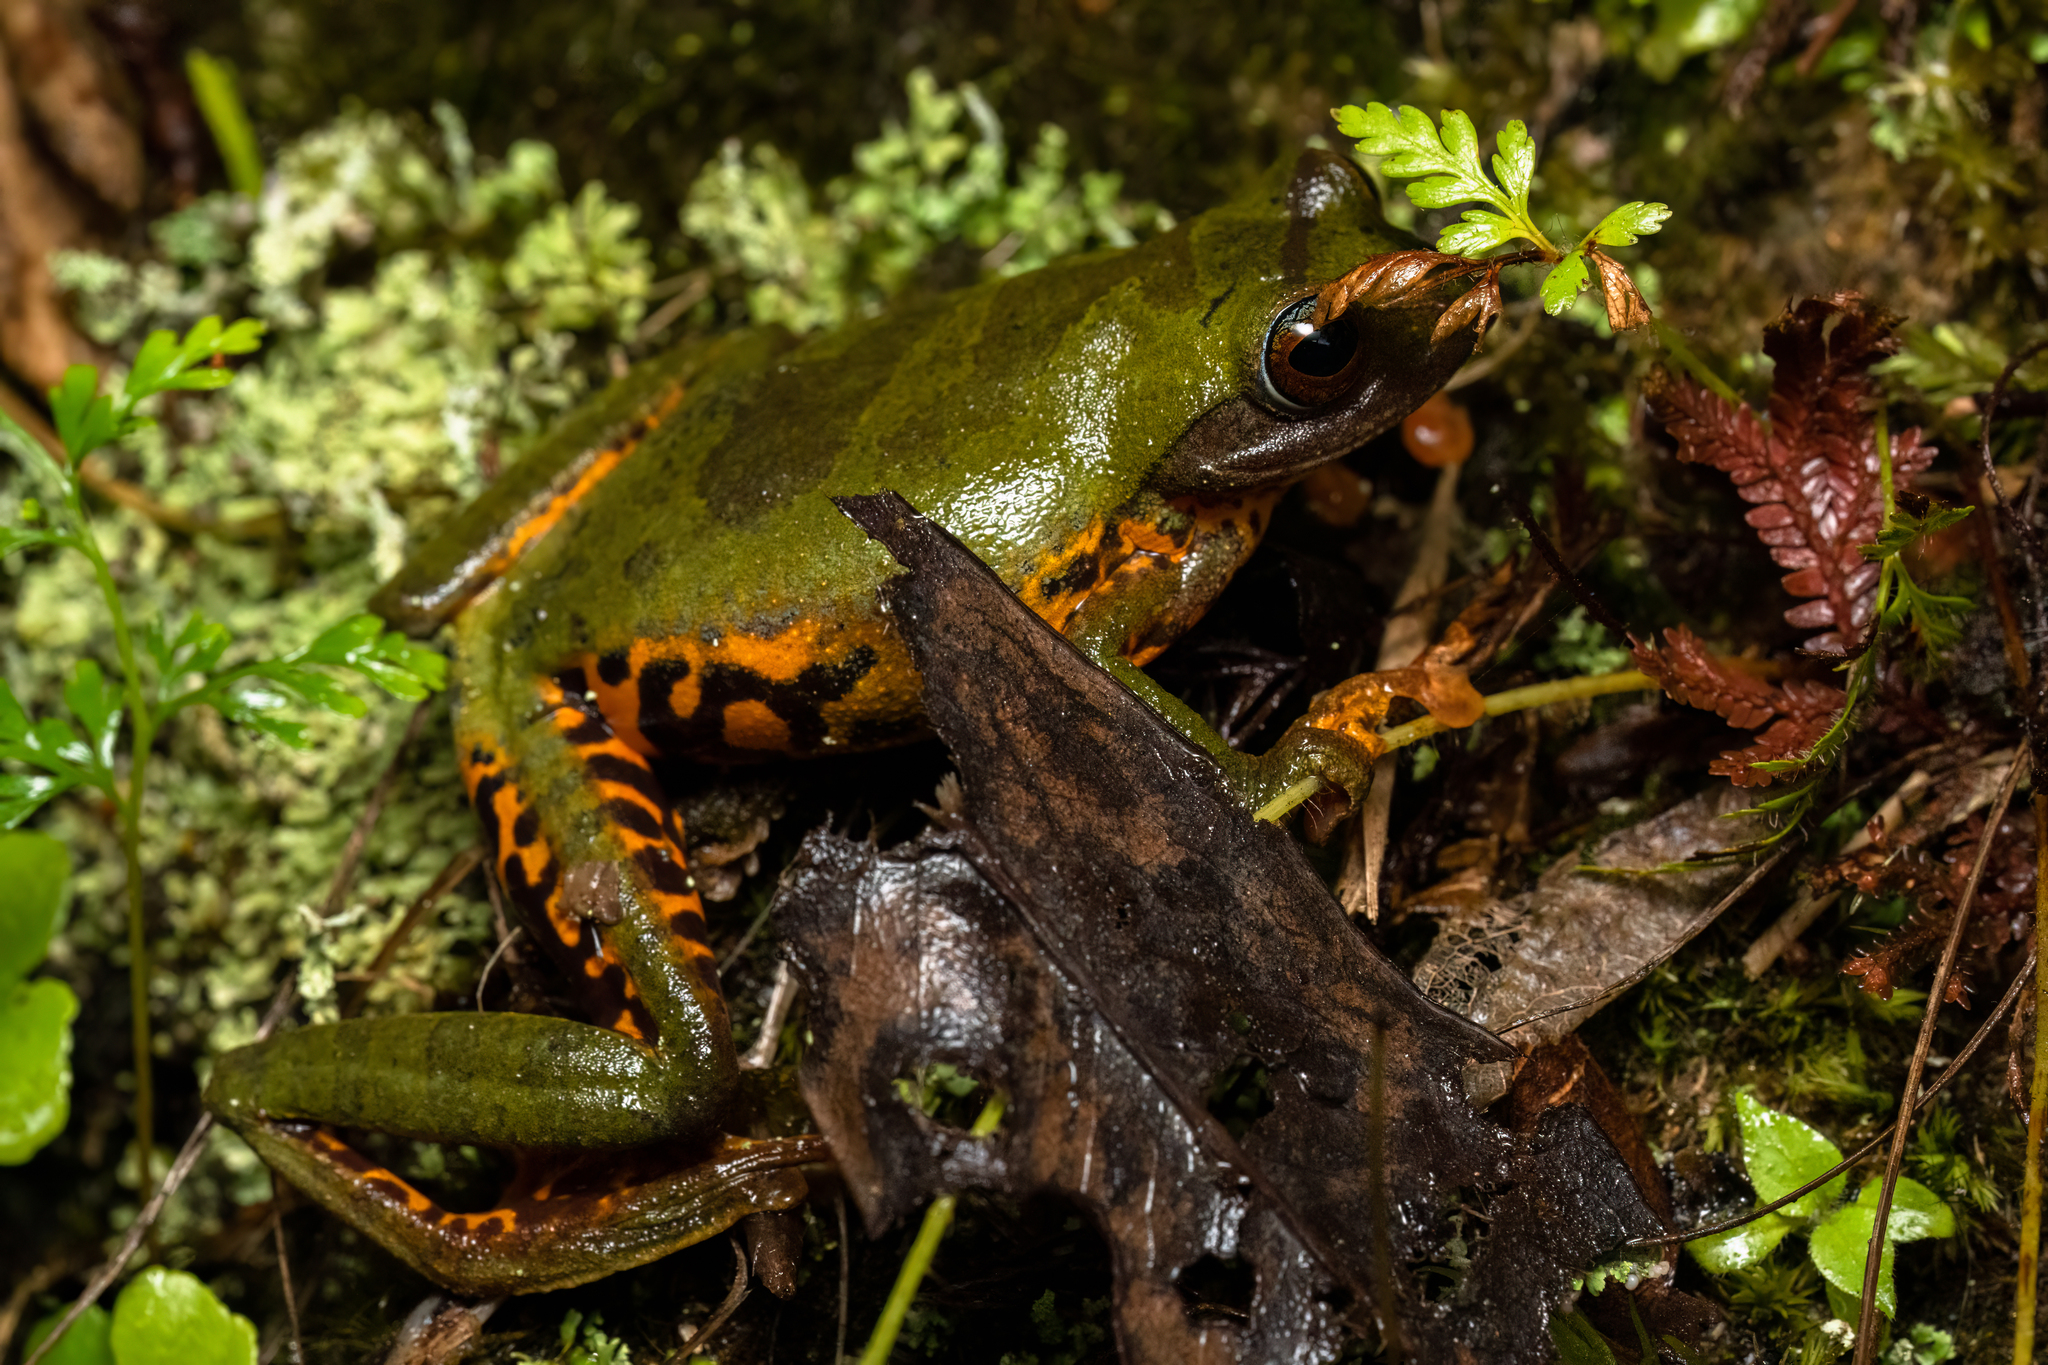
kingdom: Animalia
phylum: Chordata
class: Amphibia
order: Anura
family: Rhacophoridae
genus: Leptomantis
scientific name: Leptomantis angulirostris
